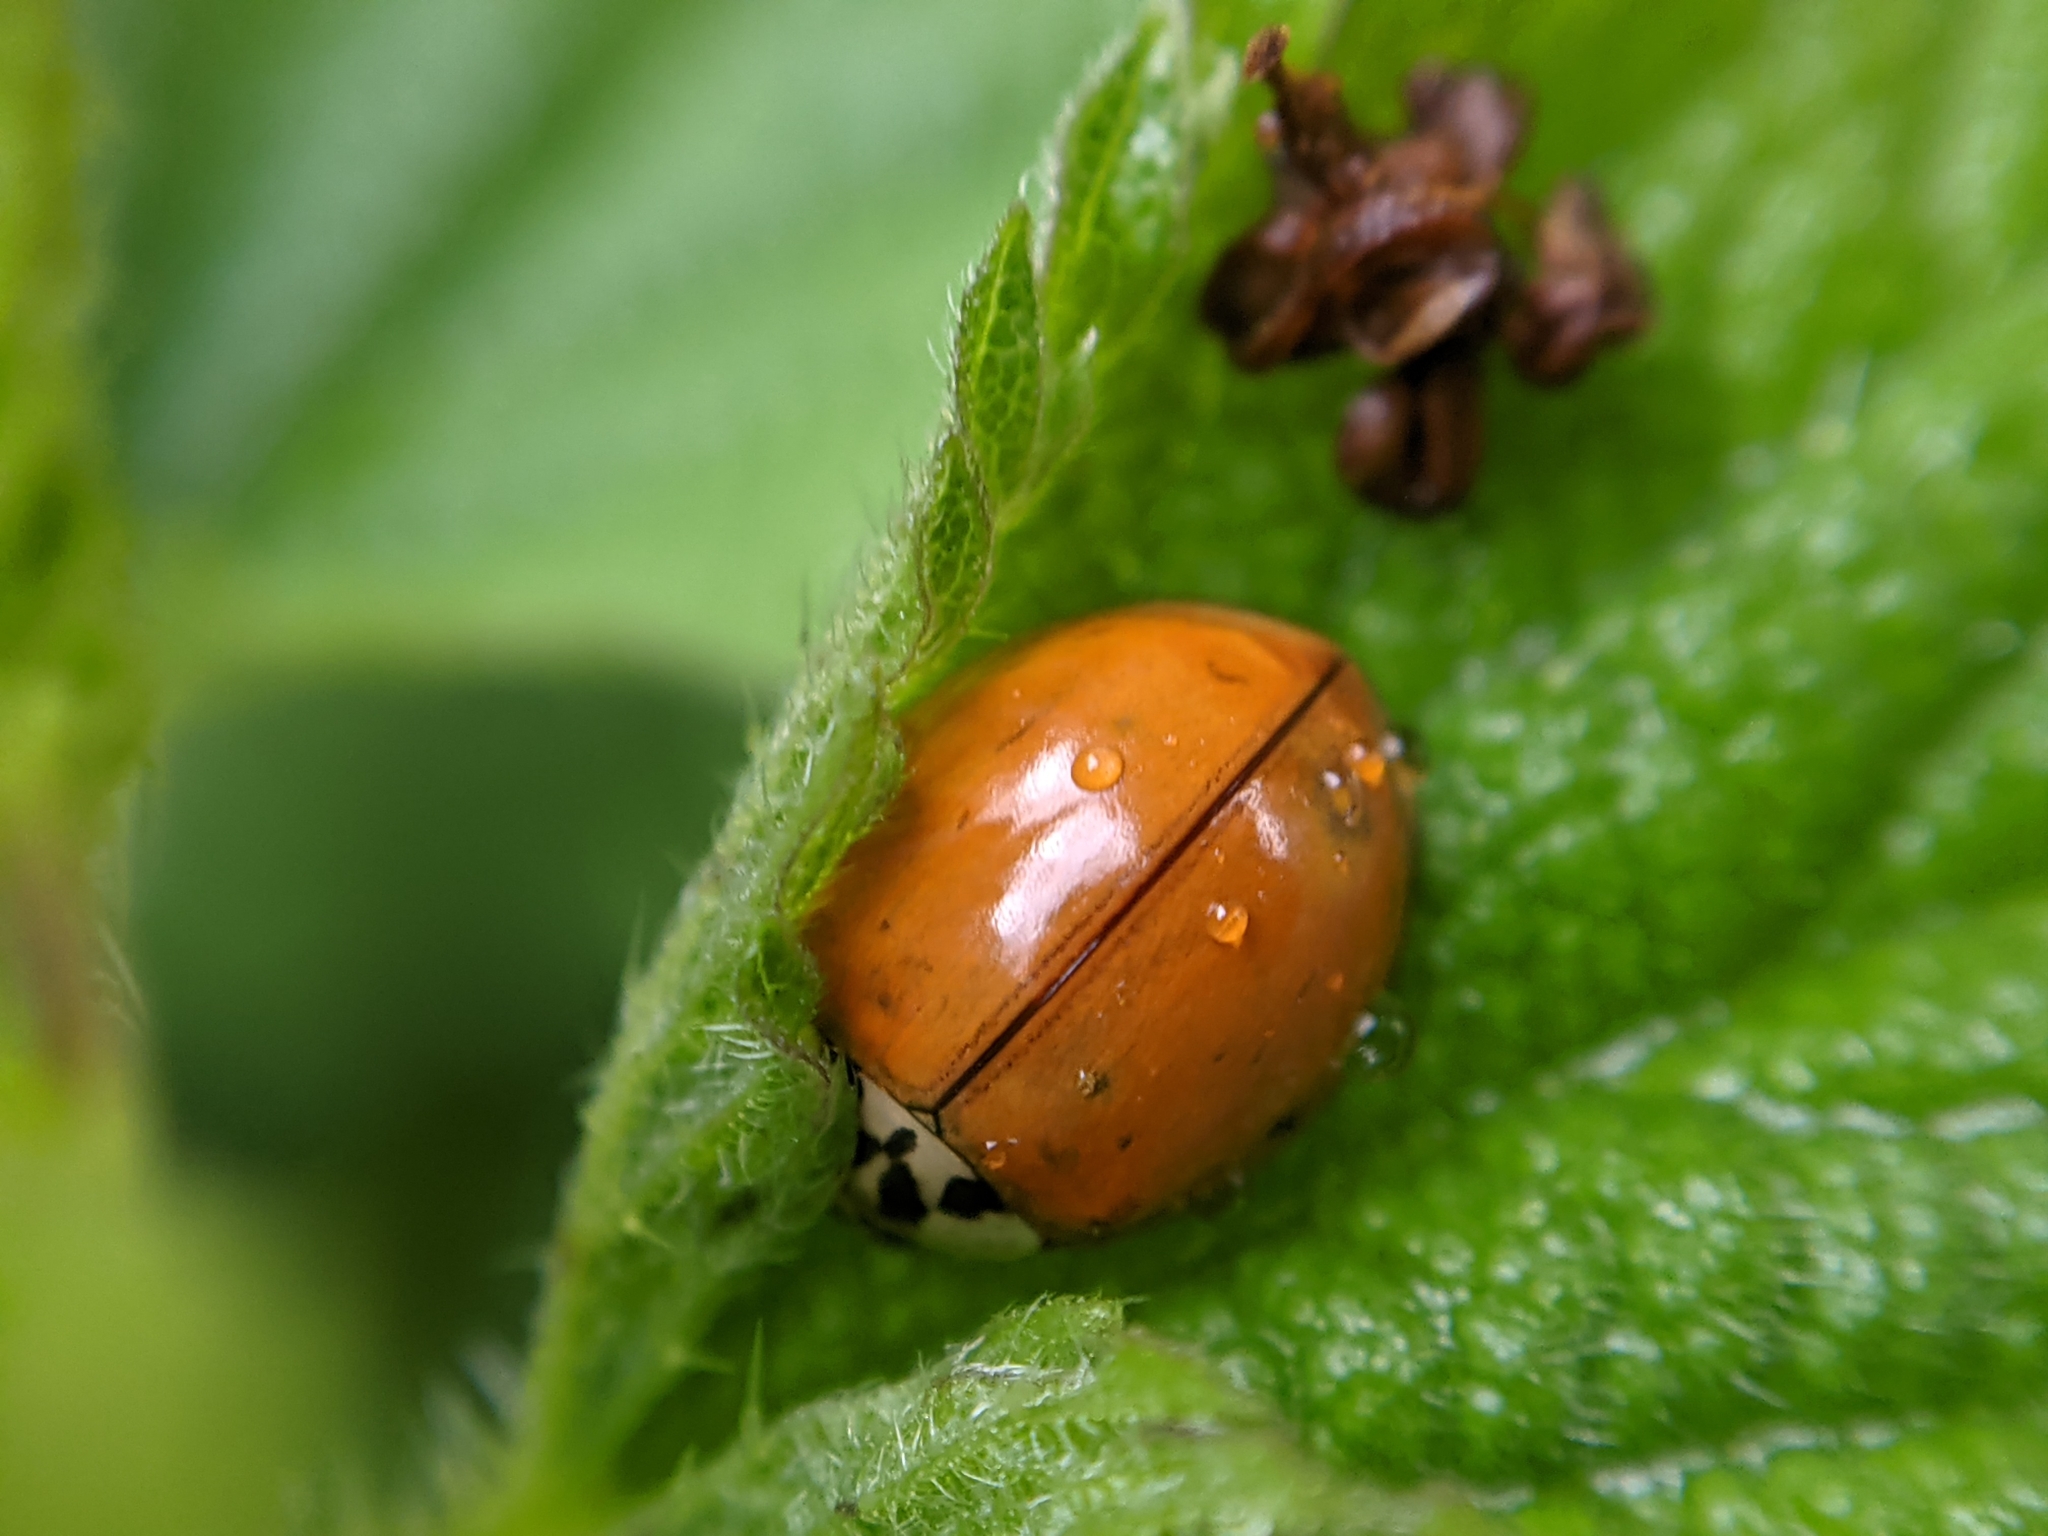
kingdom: Animalia
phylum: Arthropoda
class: Insecta
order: Coleoptera
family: Coccinellidae
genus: Harmonia
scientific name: Harmonia axyridis
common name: Harlequin ladybird
